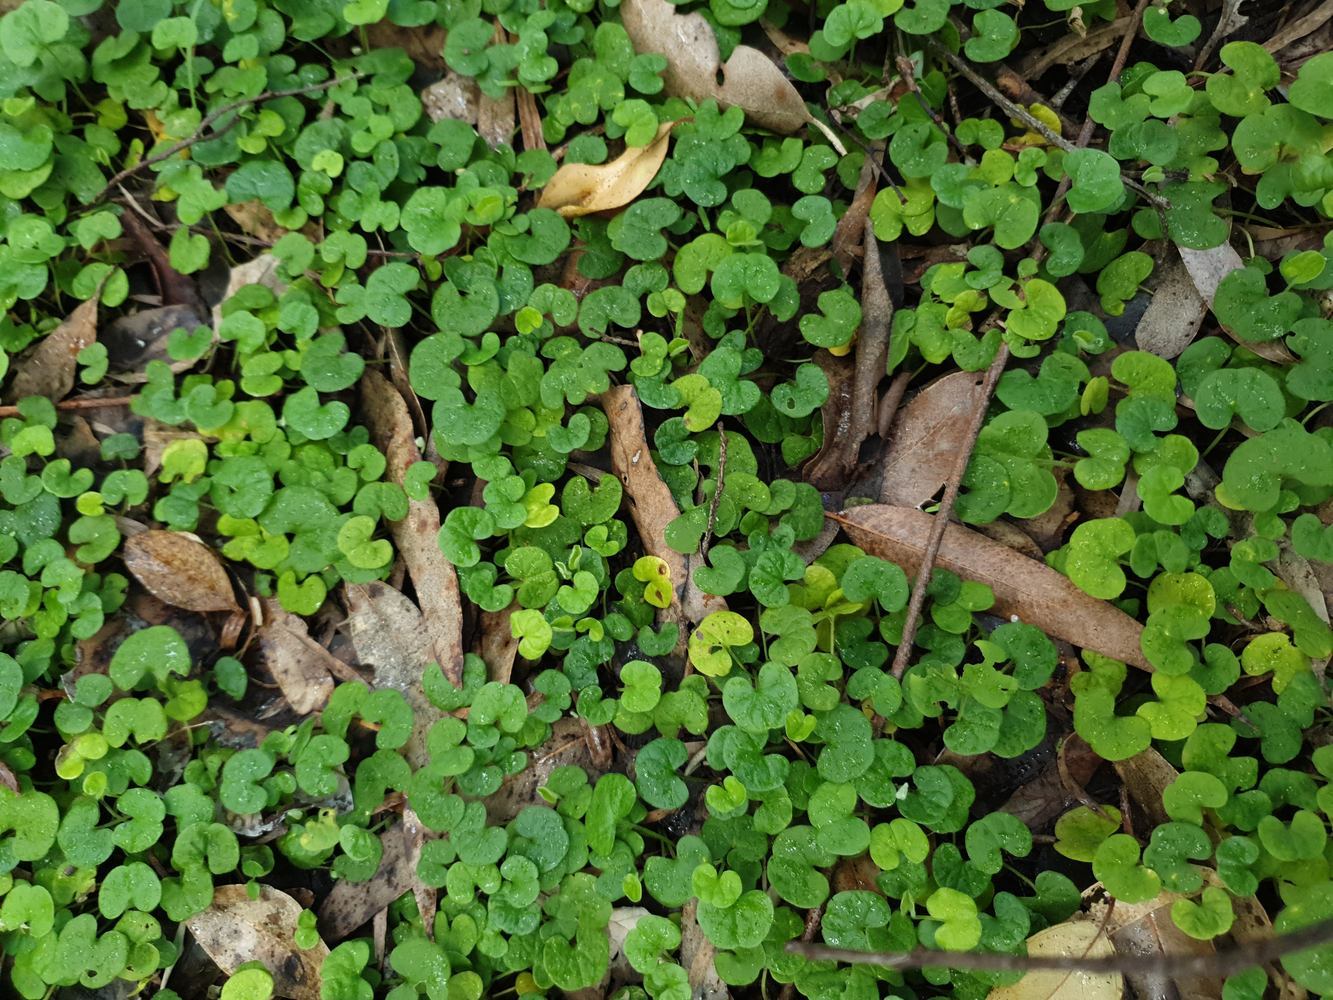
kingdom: Plantae
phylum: Tracheophyta
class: Magnoliopsida
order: Solanales
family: Convolvulaceae
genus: Dichondra
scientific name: Dichondra repens
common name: Kidneyweed
